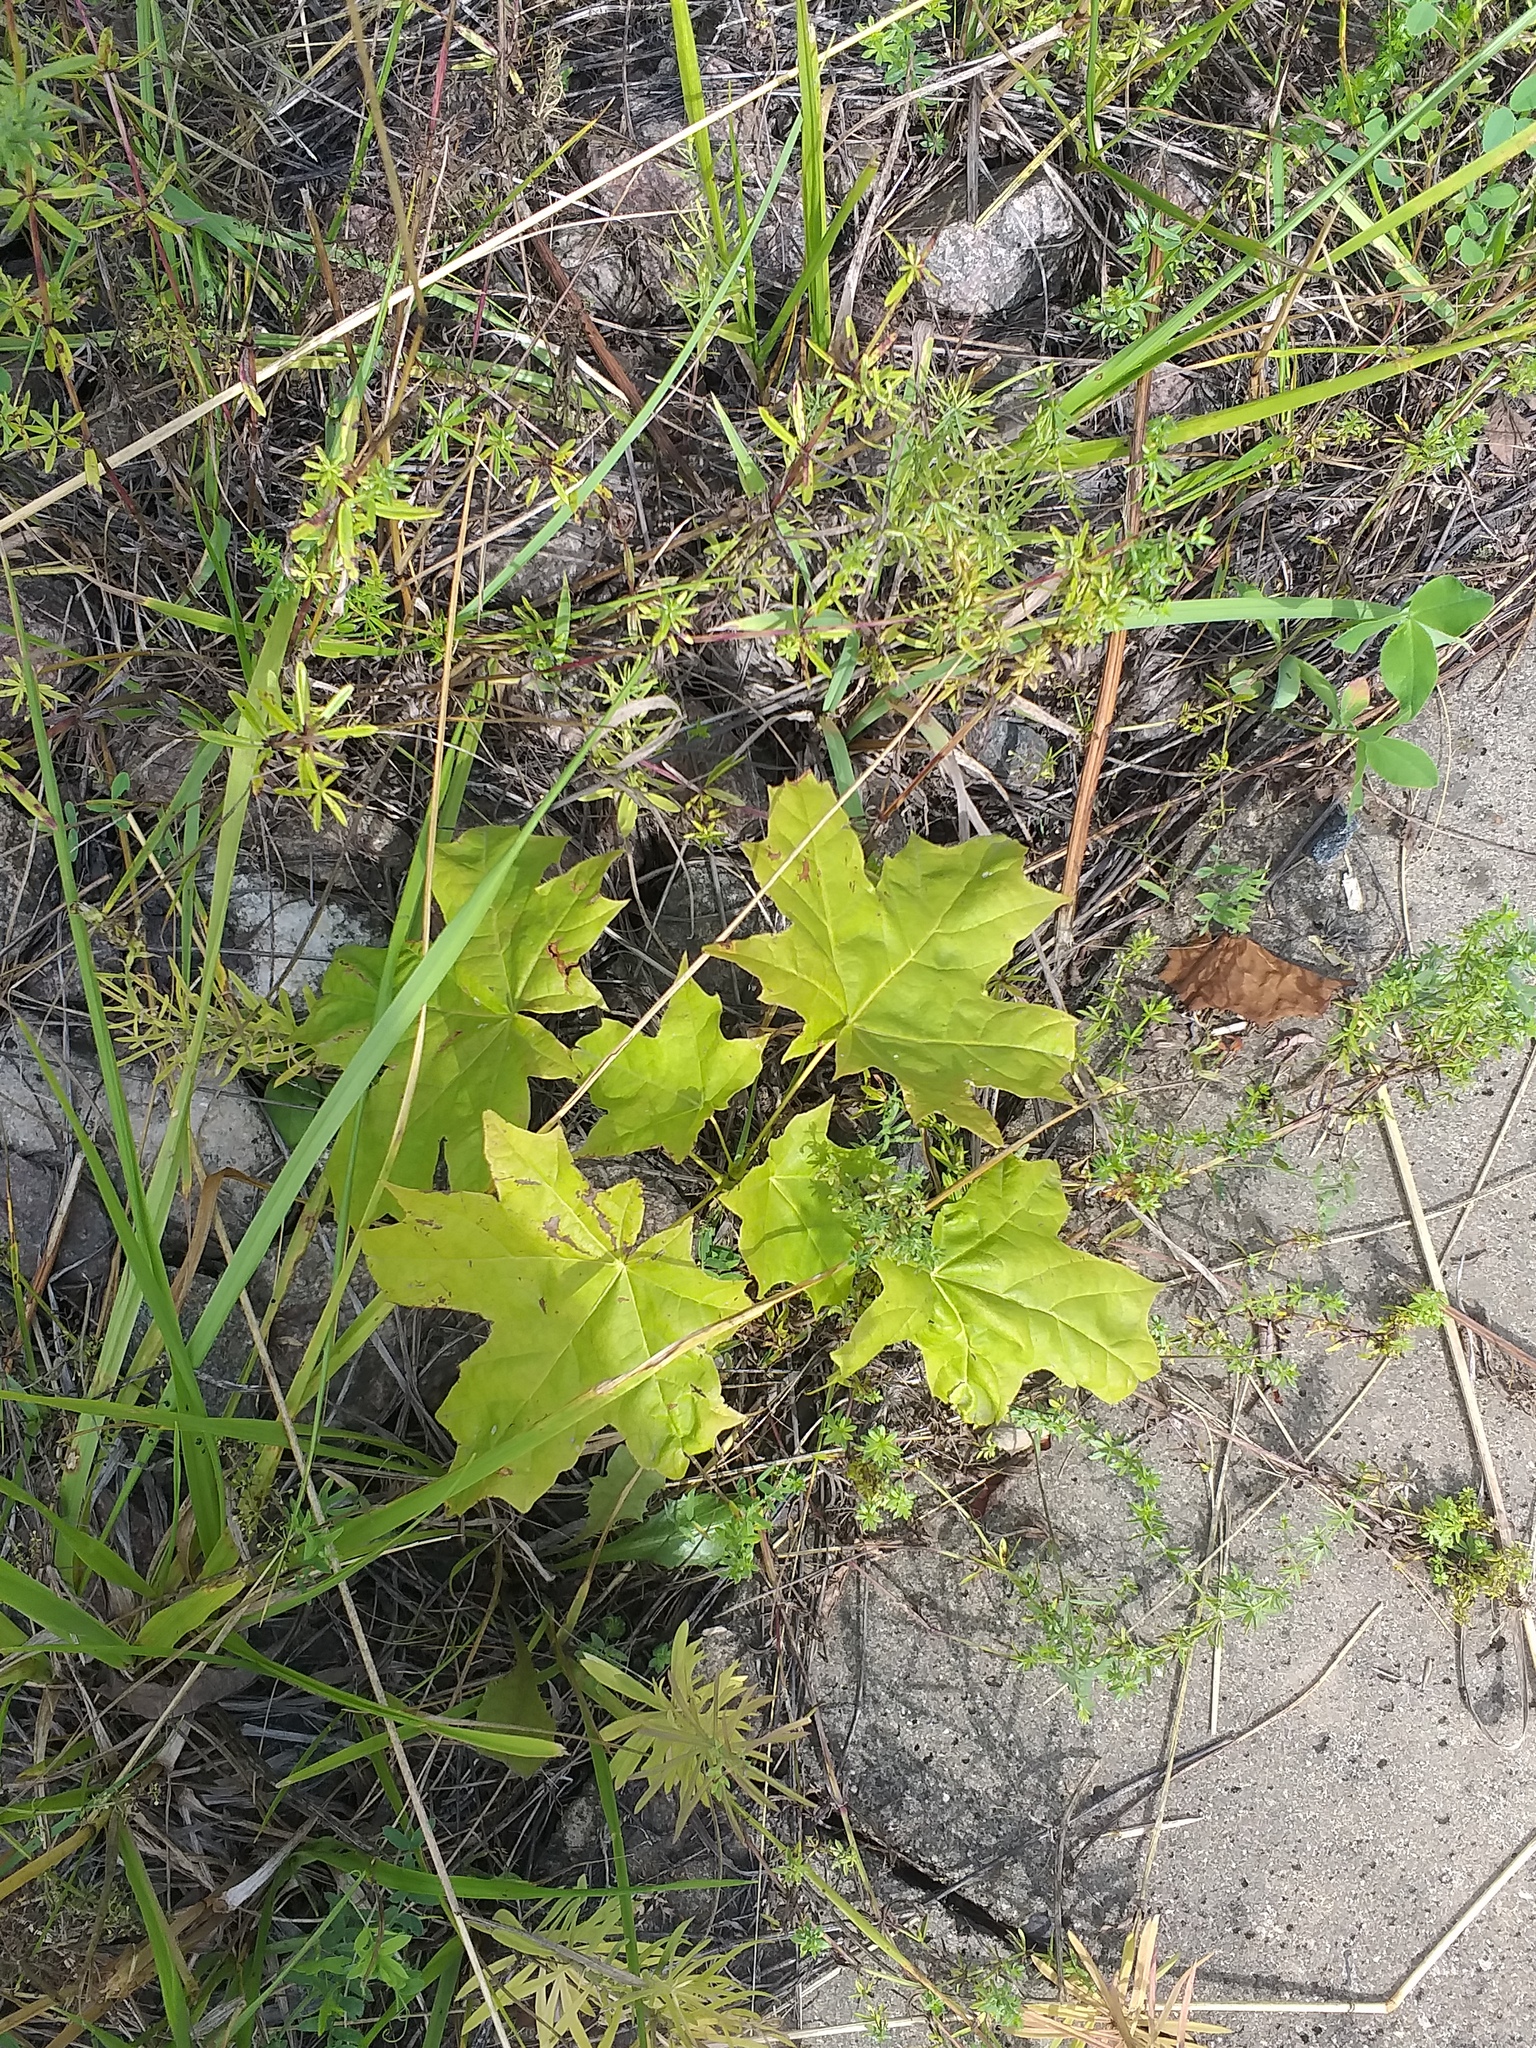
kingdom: Plantae
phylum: Tracheophyta
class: Magnoliopsida
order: Sapindales
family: Sapindaceae
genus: Acer
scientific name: Acer platanoides
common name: Norway maple
